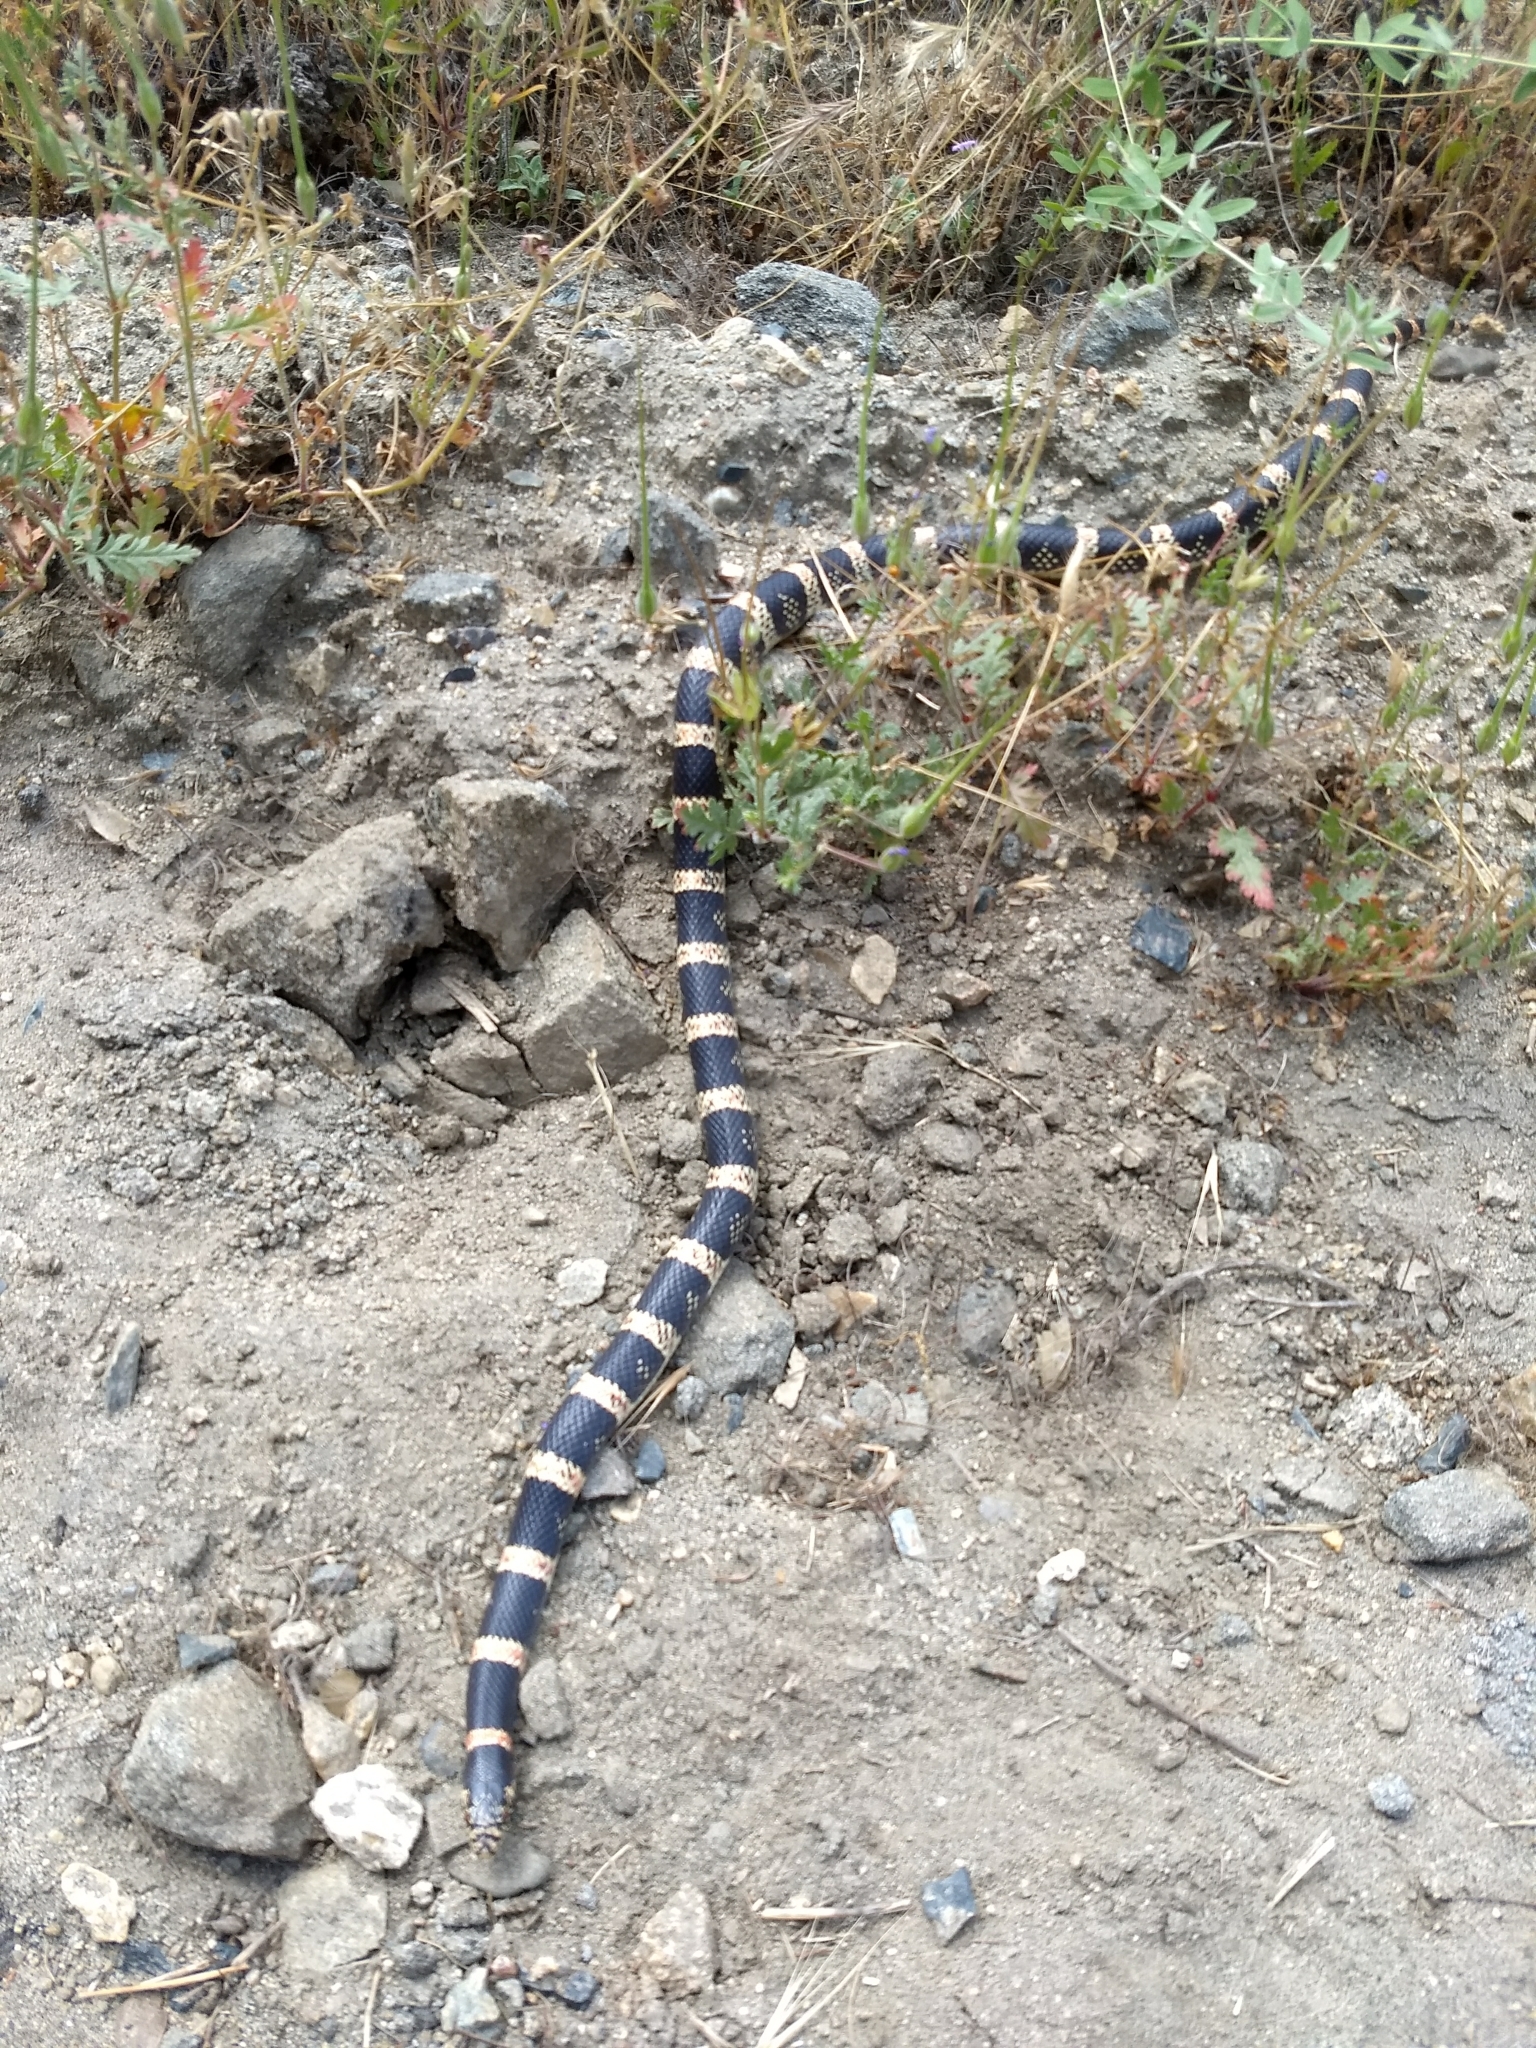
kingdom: Animalia
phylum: Chordata
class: Squamata
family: Colubridae
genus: Rhinocheilus
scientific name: Rhinocheilus lecontei
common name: Longnose snake
